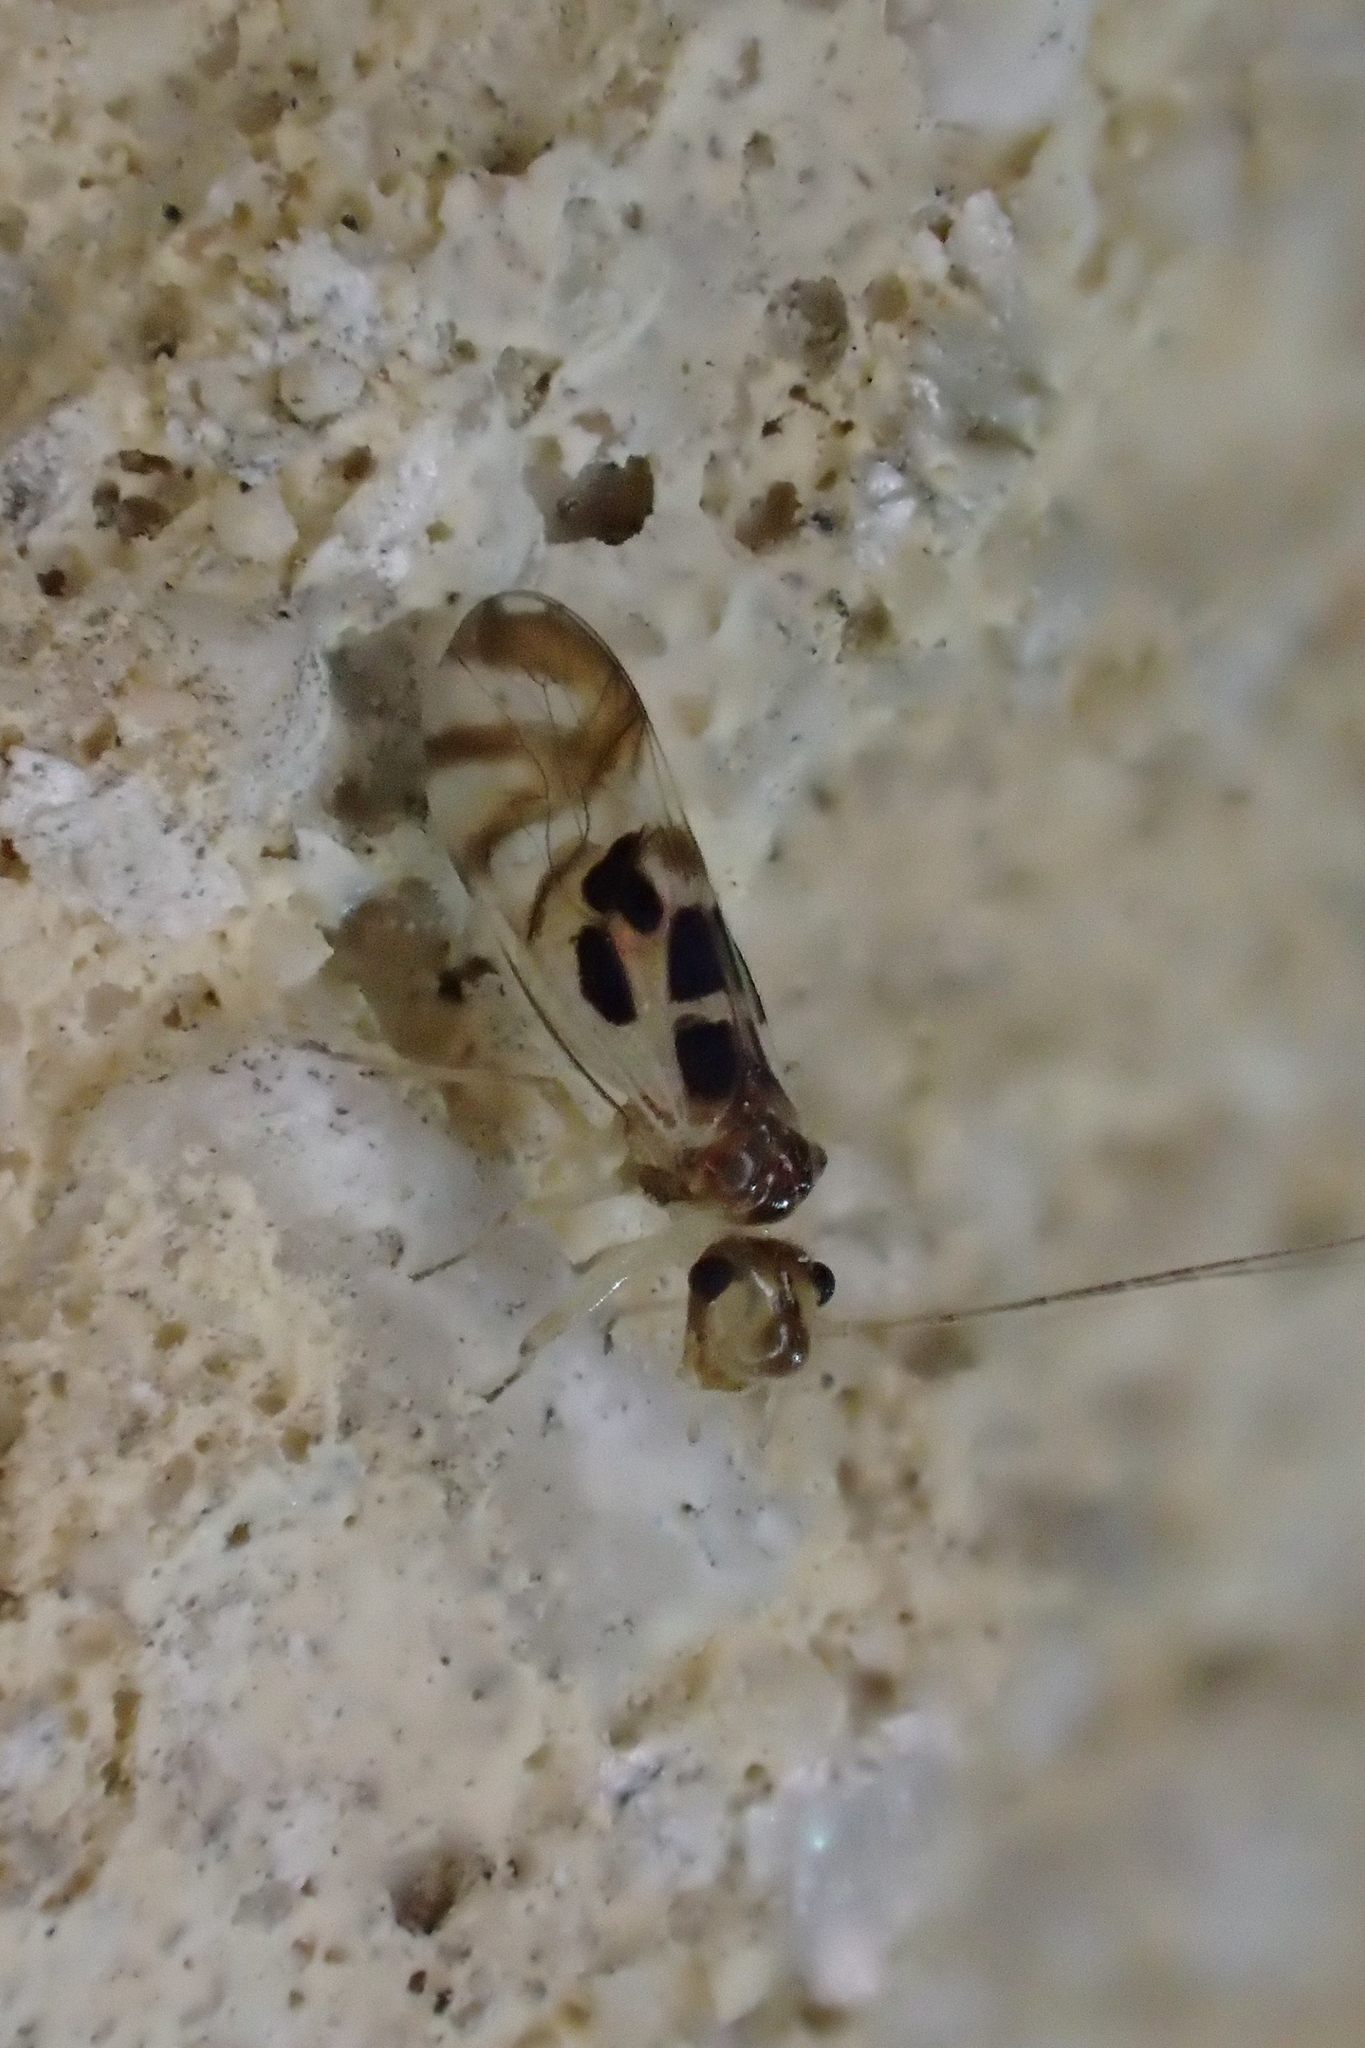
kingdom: Animalia
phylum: Arthropoda
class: Insecta
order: Psocodea
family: Stenopsocidae
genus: Graphopsocus
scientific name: Graphopsocus cruciatus
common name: Lizard bark louse
